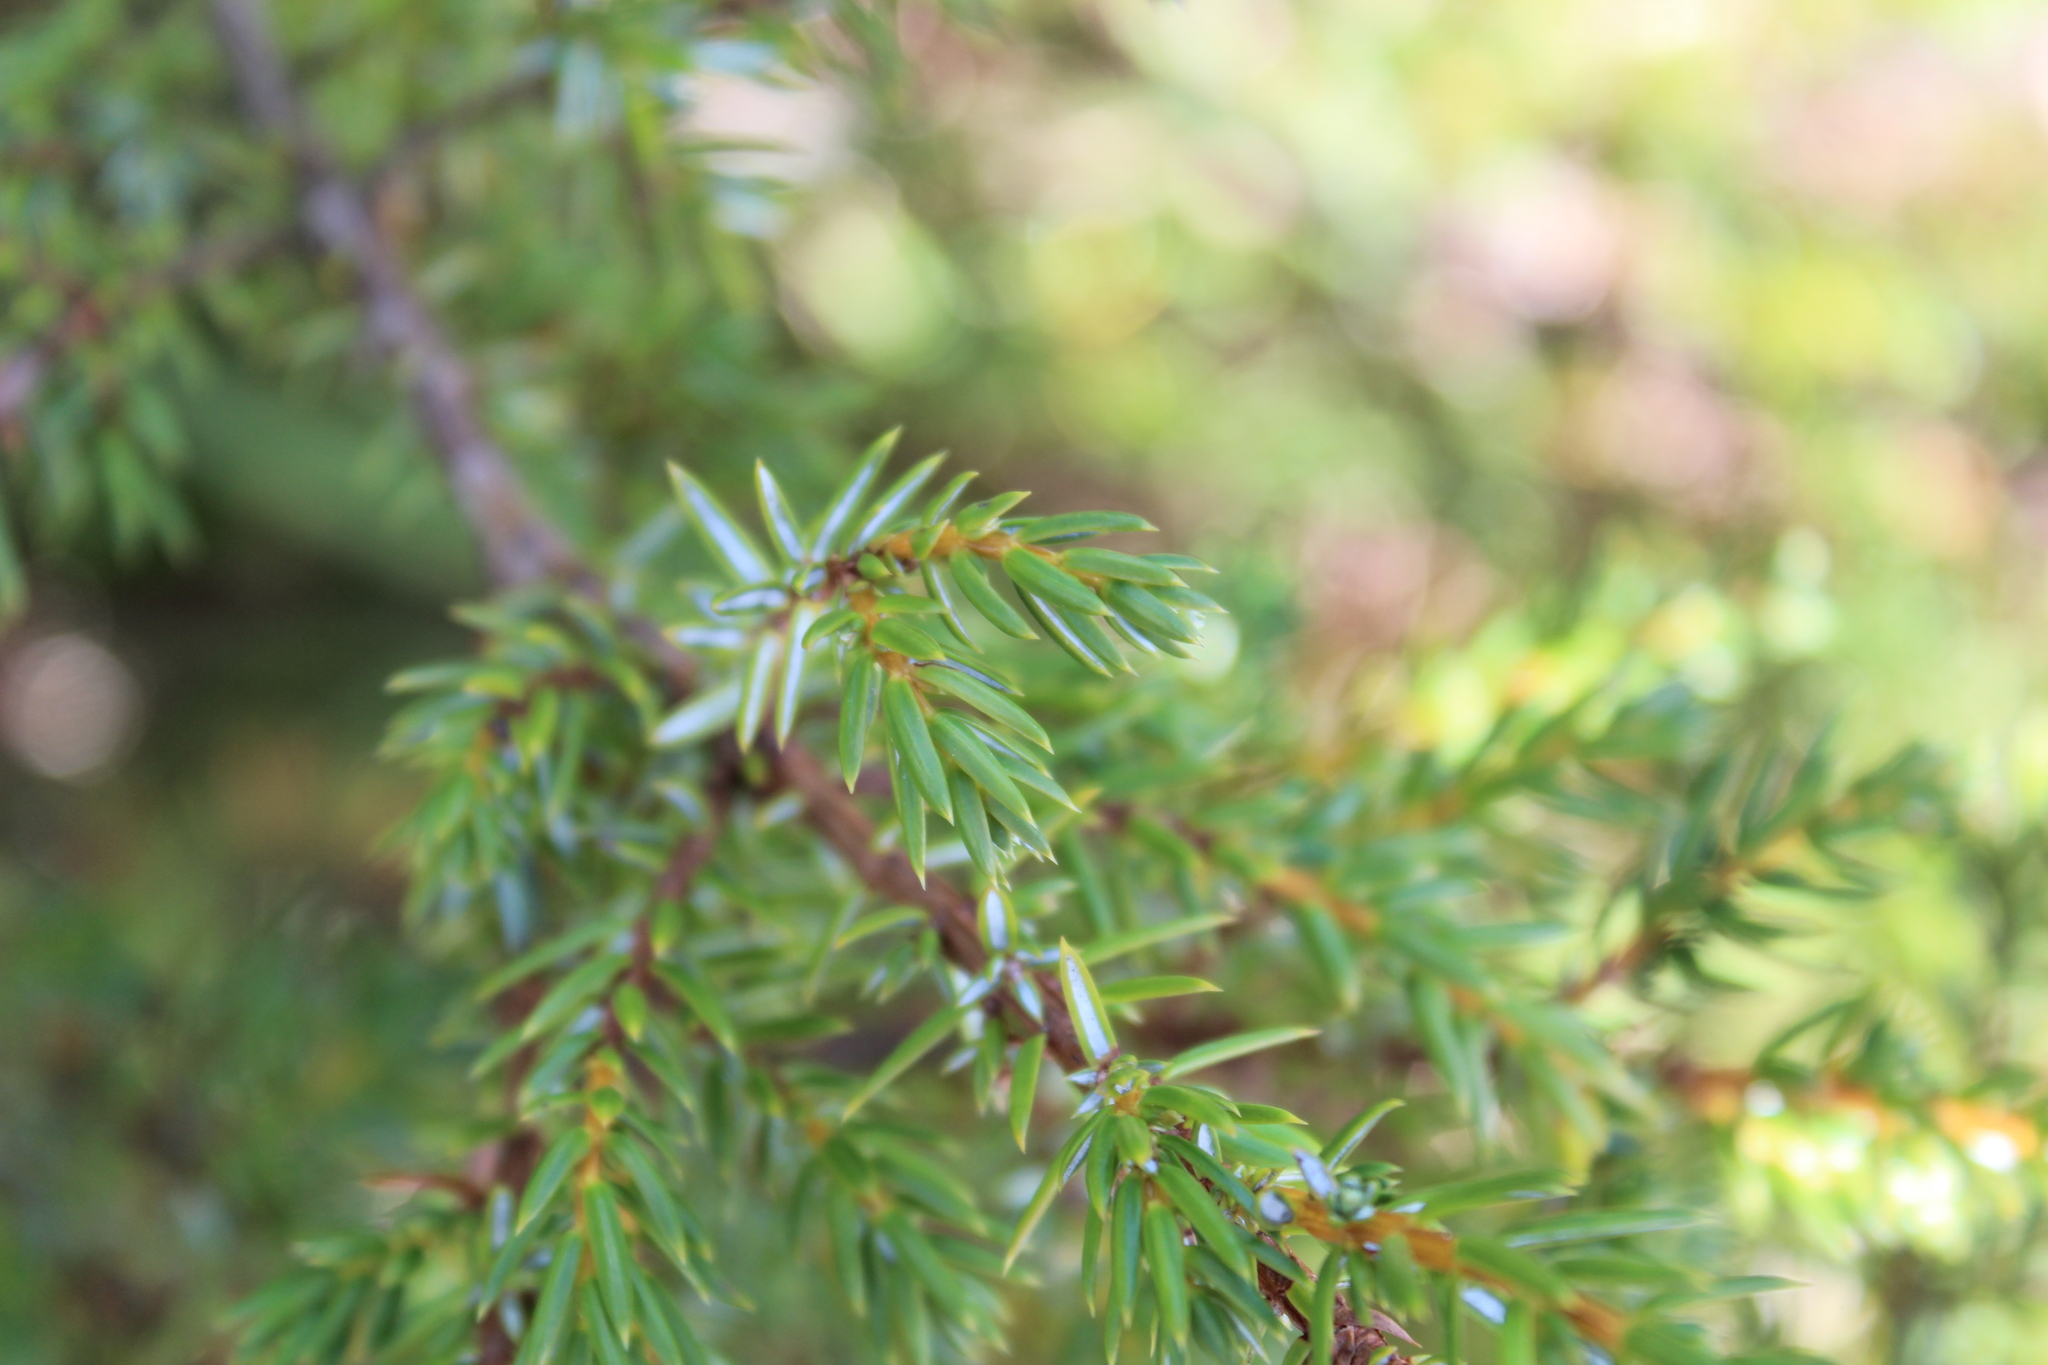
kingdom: Plantae
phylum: Tracheophyta
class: Pinopsida
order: Pinales
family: Cupressaceae
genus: Juniperus
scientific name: Juniperus communis
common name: Common juniper
